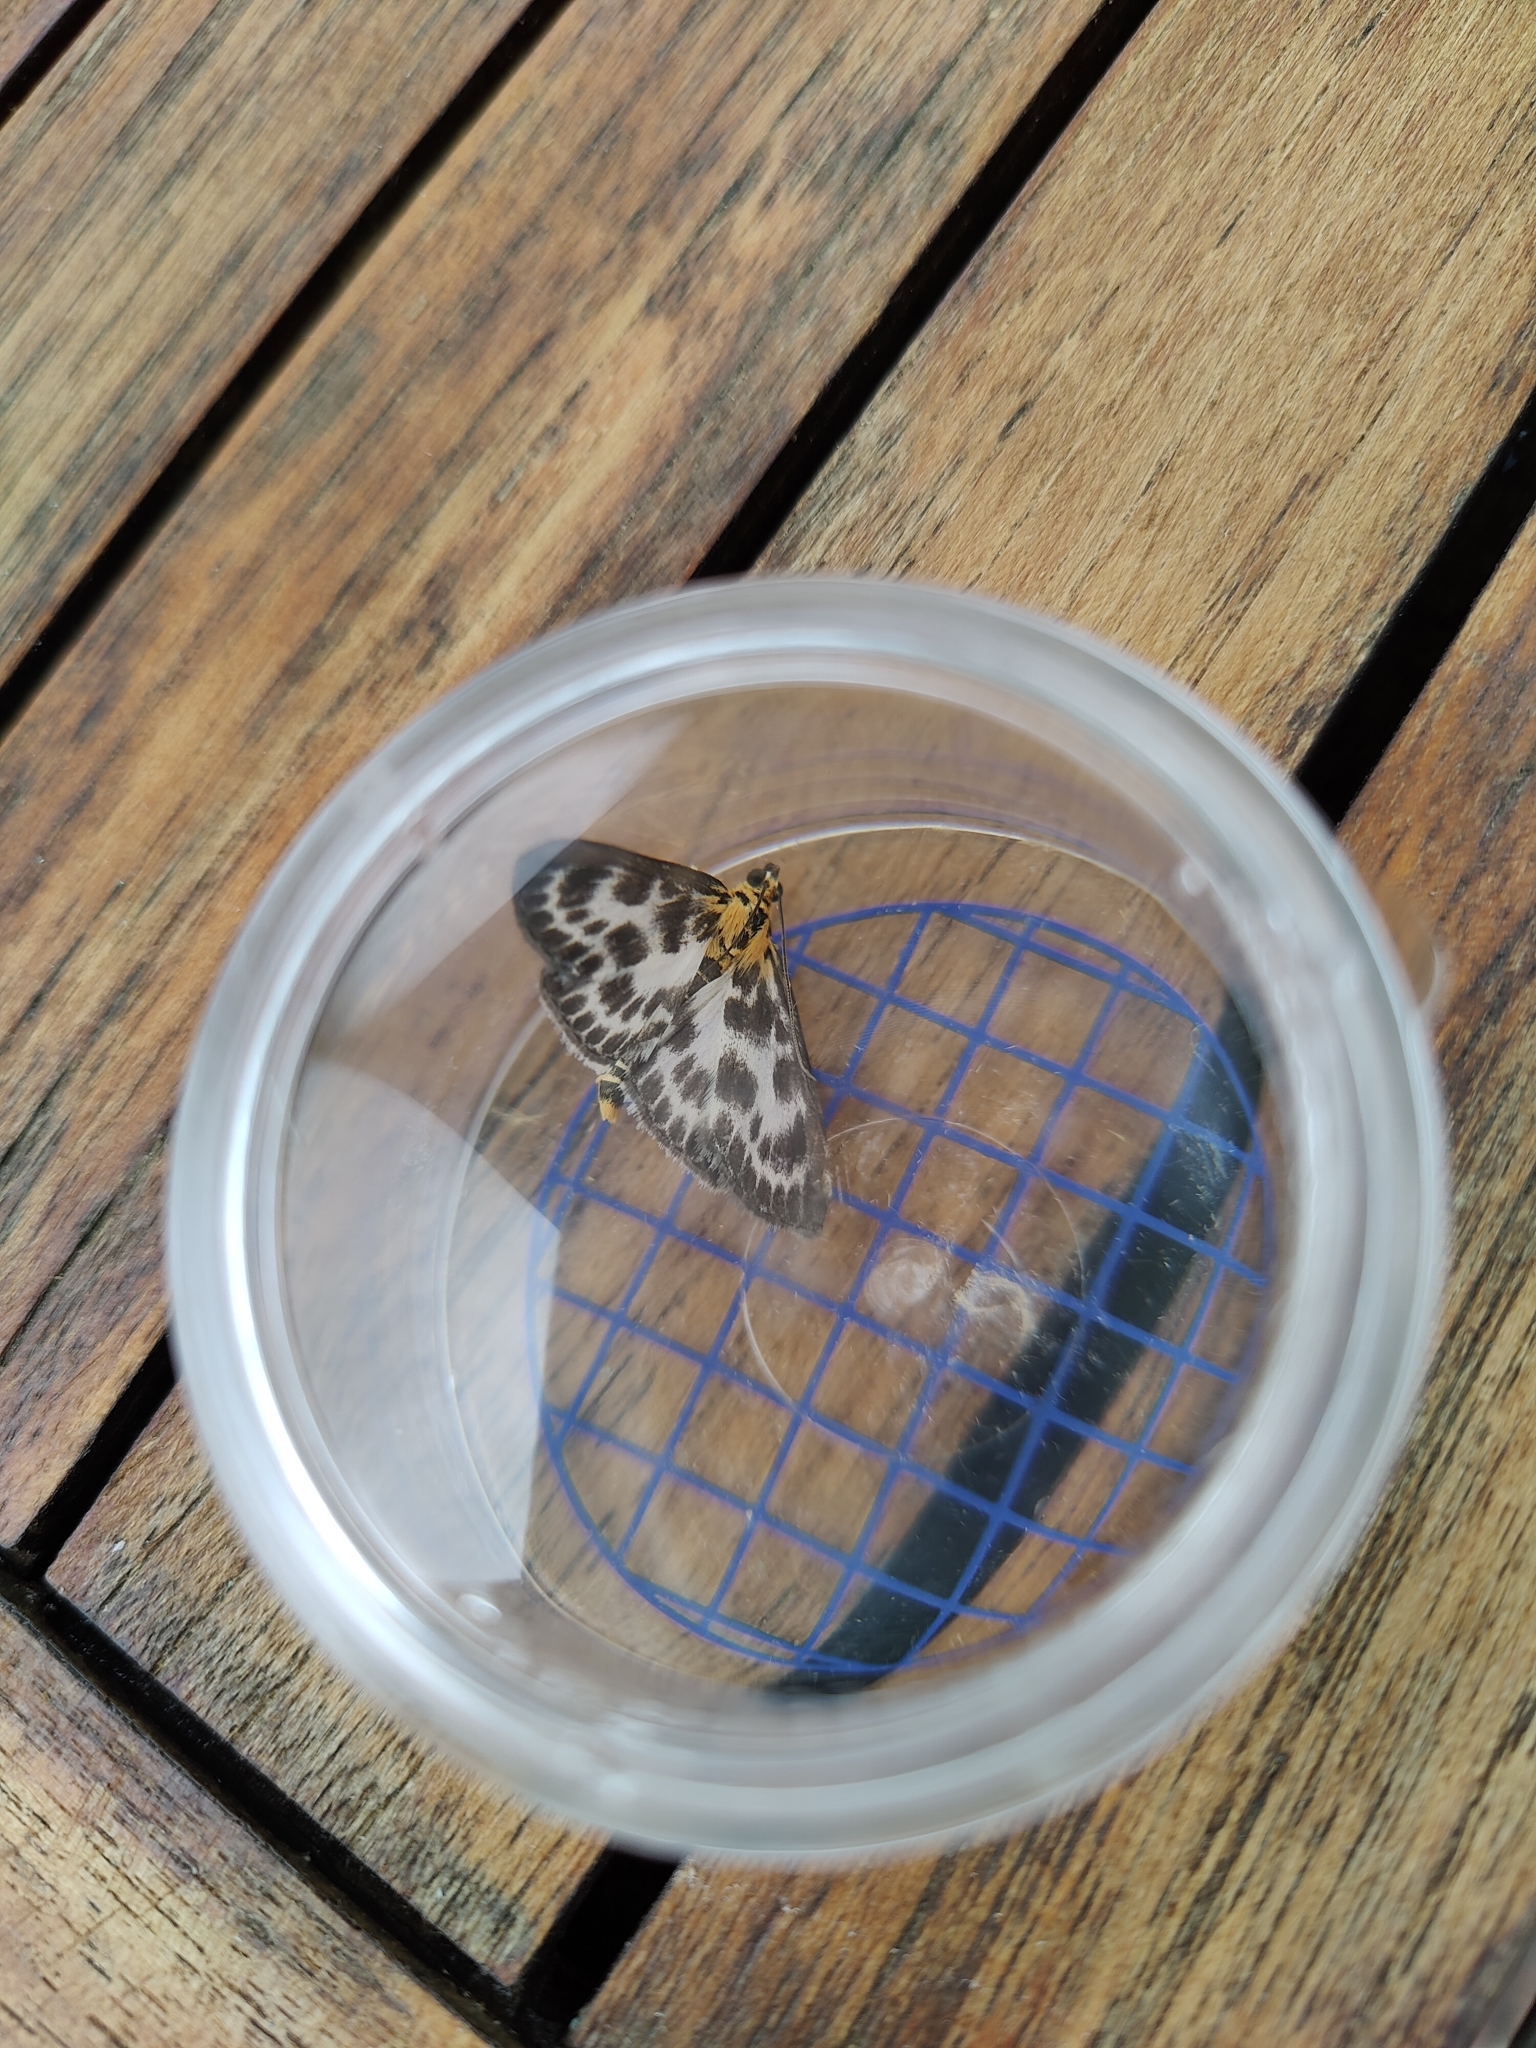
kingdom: Animalia
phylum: Arthropoda
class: Insecta
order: Lepidoptera
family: Crambidae
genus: Anania
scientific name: Anania hortulata
